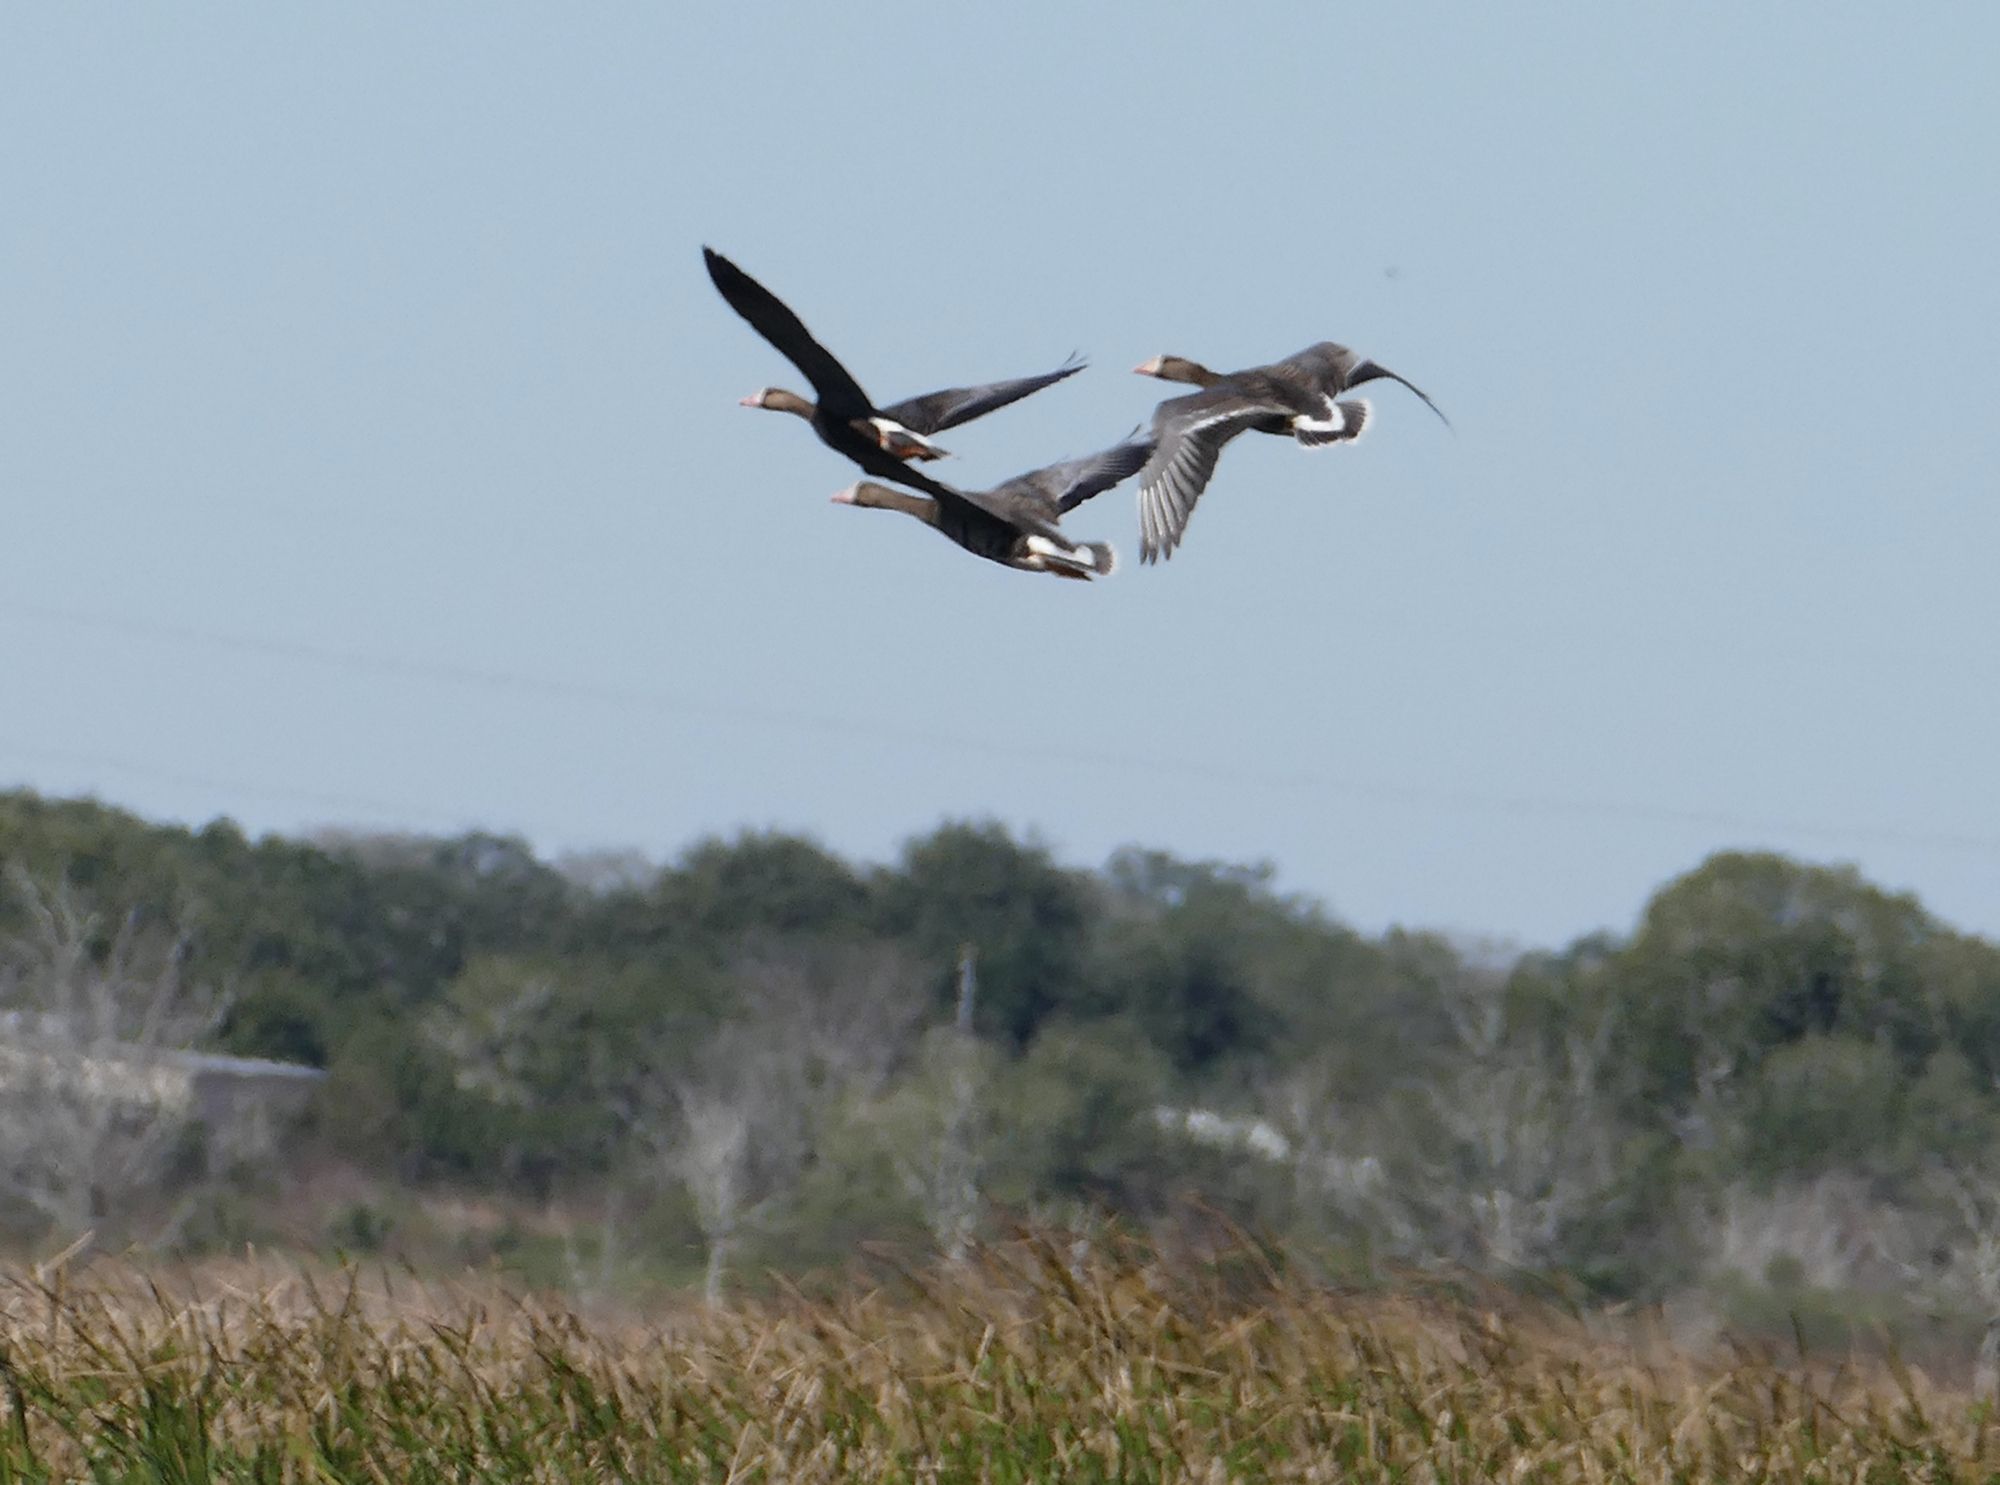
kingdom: Animalia
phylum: Chordata
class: Aves
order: Anseriformes
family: Anatidae
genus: Anser
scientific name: Anser albifrons
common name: Greater white-fronted goose
